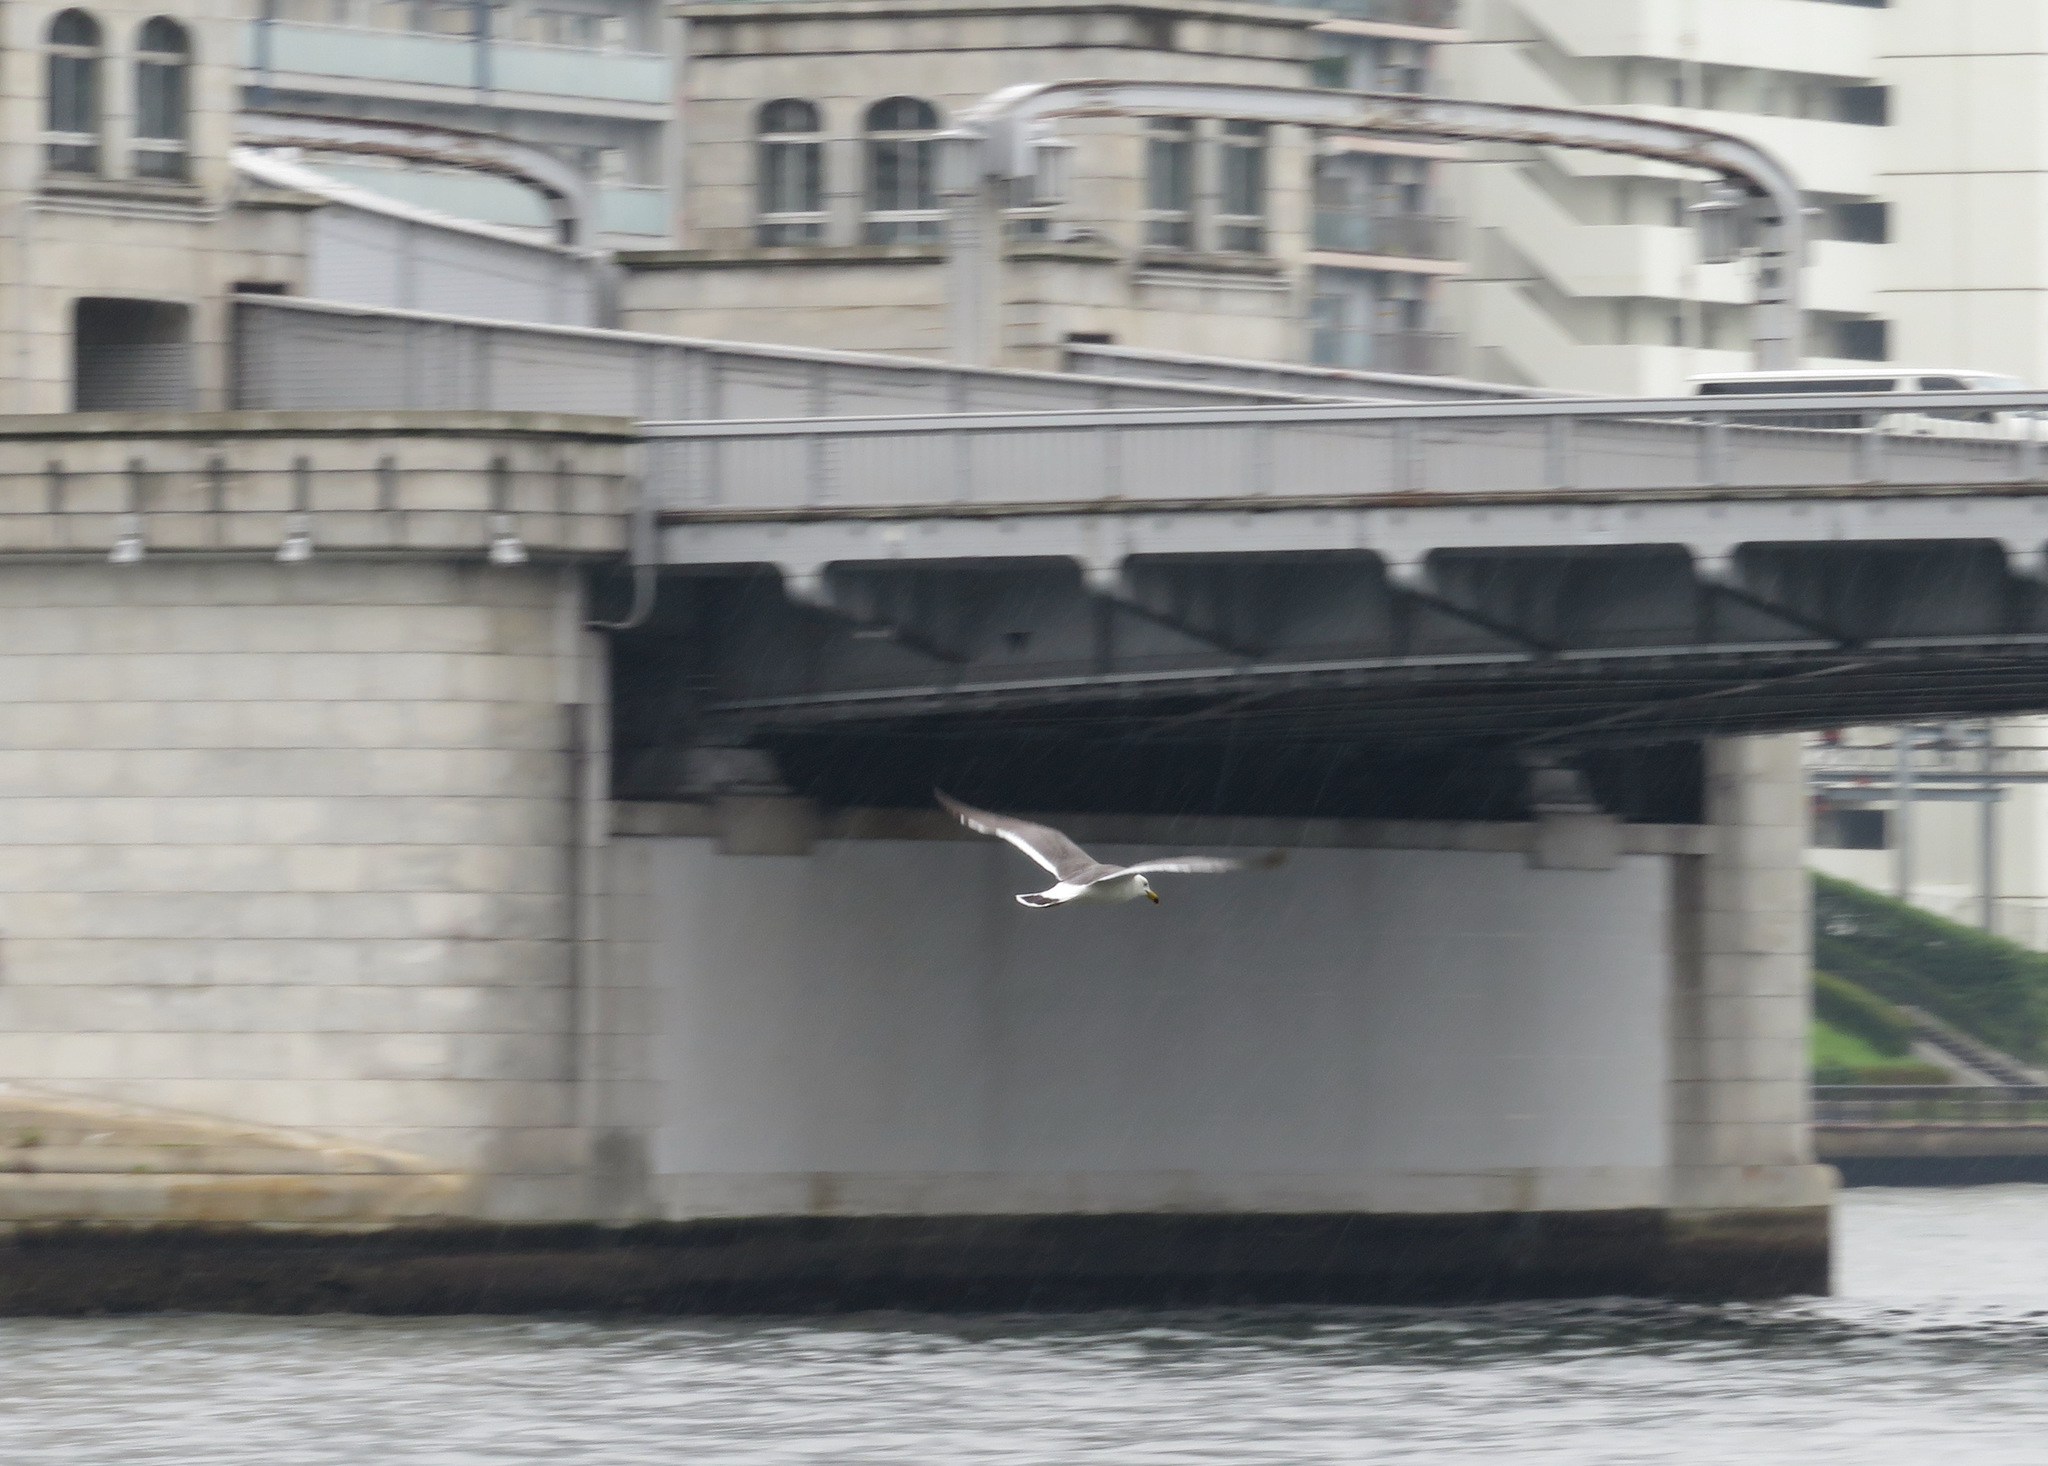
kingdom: Animalia
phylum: Chordata
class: Aves
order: Charadriiformes
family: Laridae
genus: Larus
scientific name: Larus crassirostris
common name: Black-tailed gull
